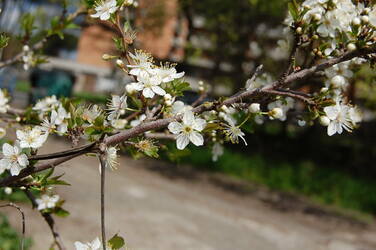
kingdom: Plantae
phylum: Tracheophyta
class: Magnoliopsida
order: Rosales
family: Rosaceae
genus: Prunus
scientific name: Prunus spinosa
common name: Blackthorn
